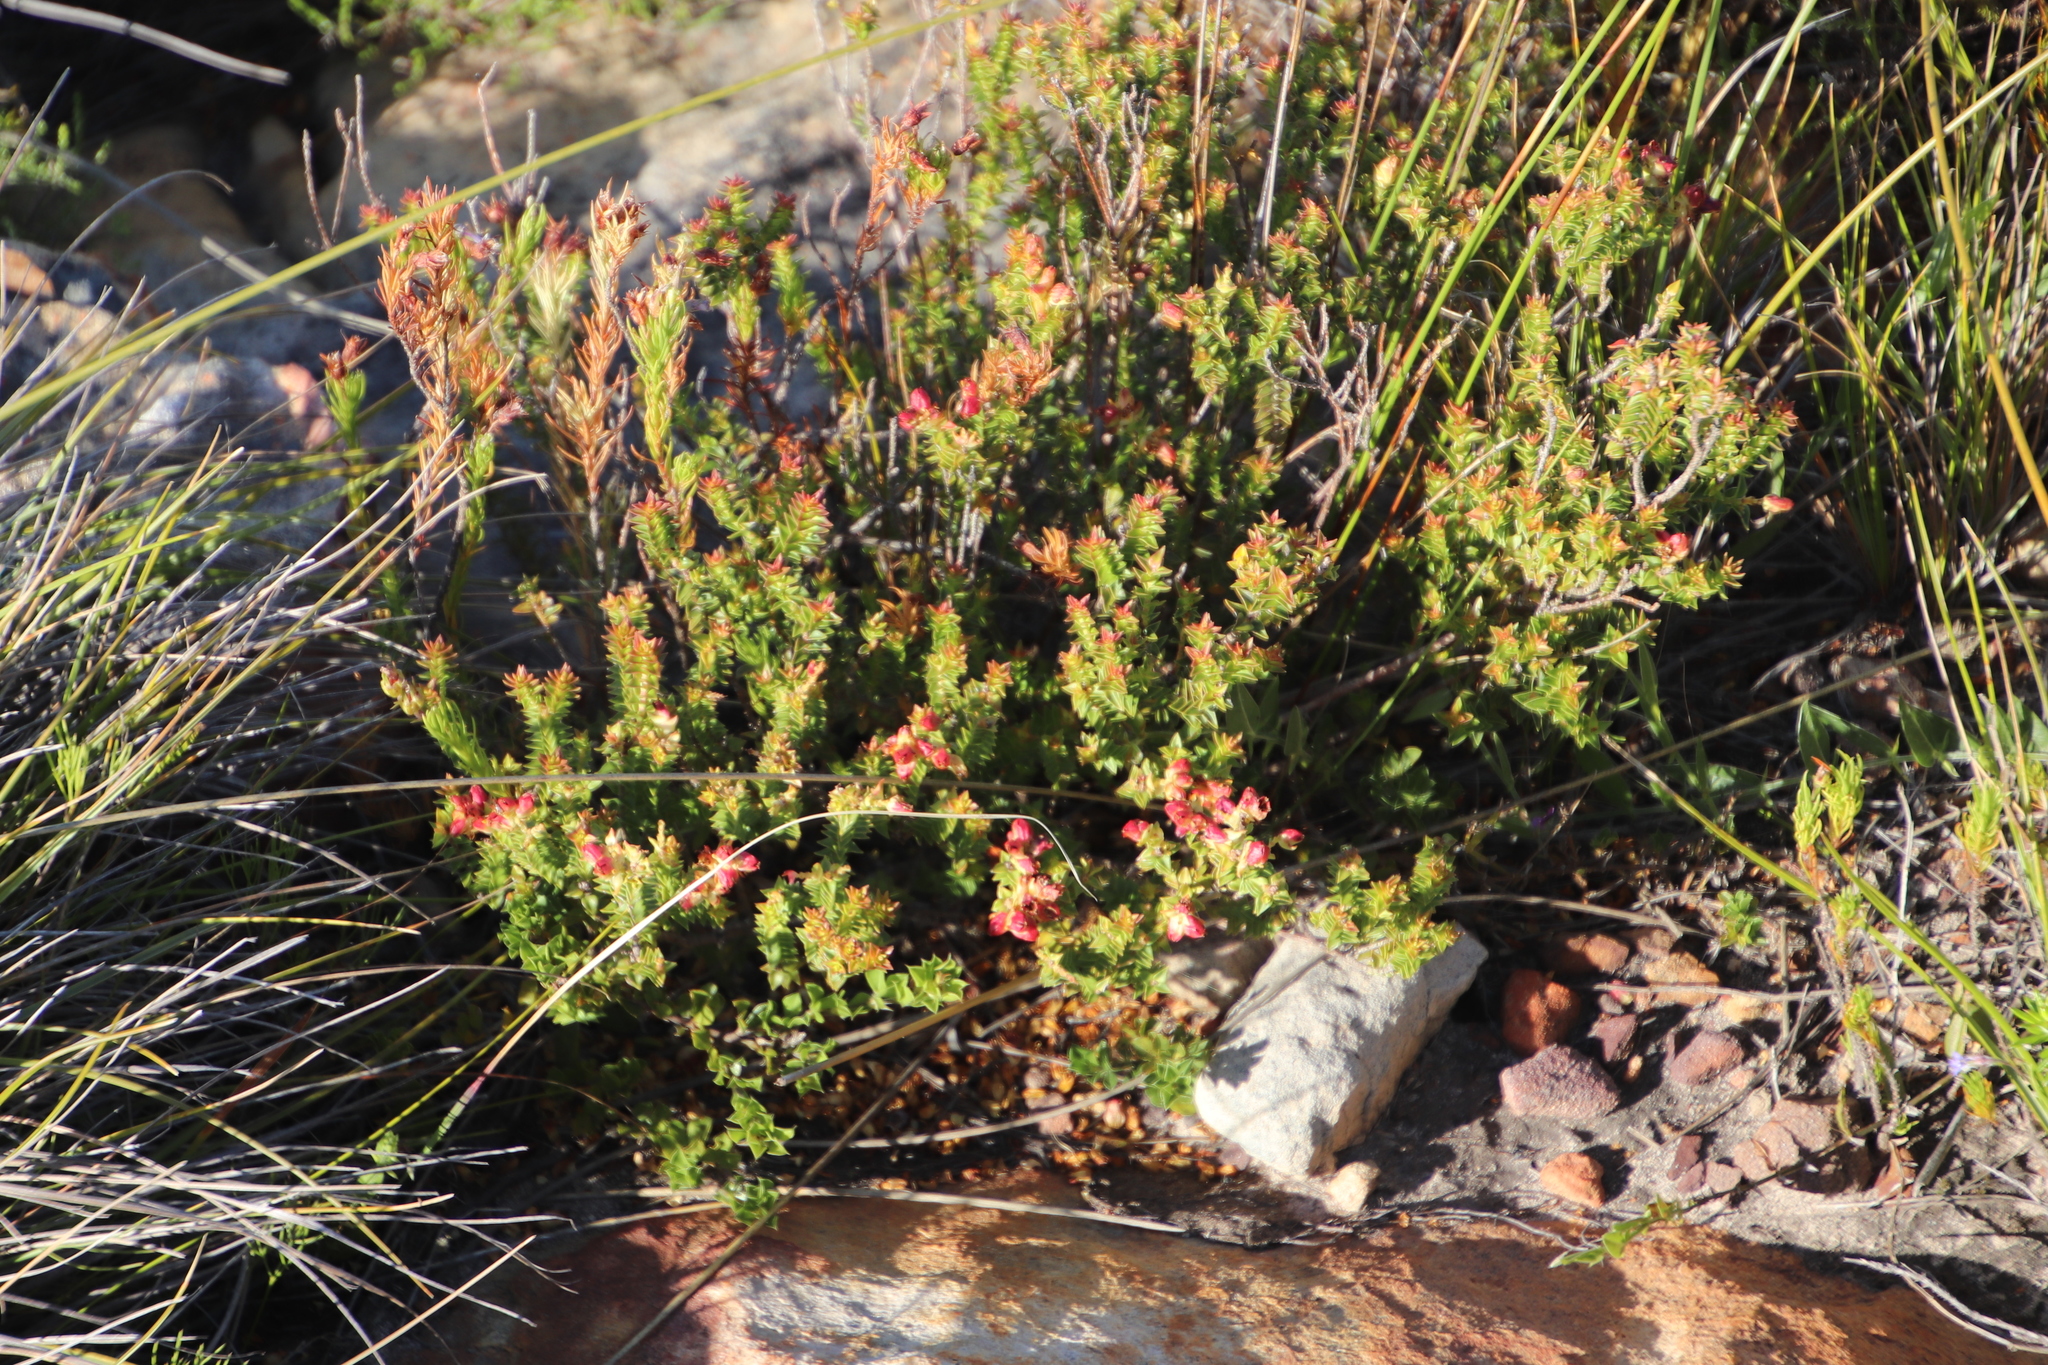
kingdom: Plantae
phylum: Tracheophyta
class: Magnoliopsida
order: Myrtales
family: Penaeaceae
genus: Penaea
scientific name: Penaea mucronata
